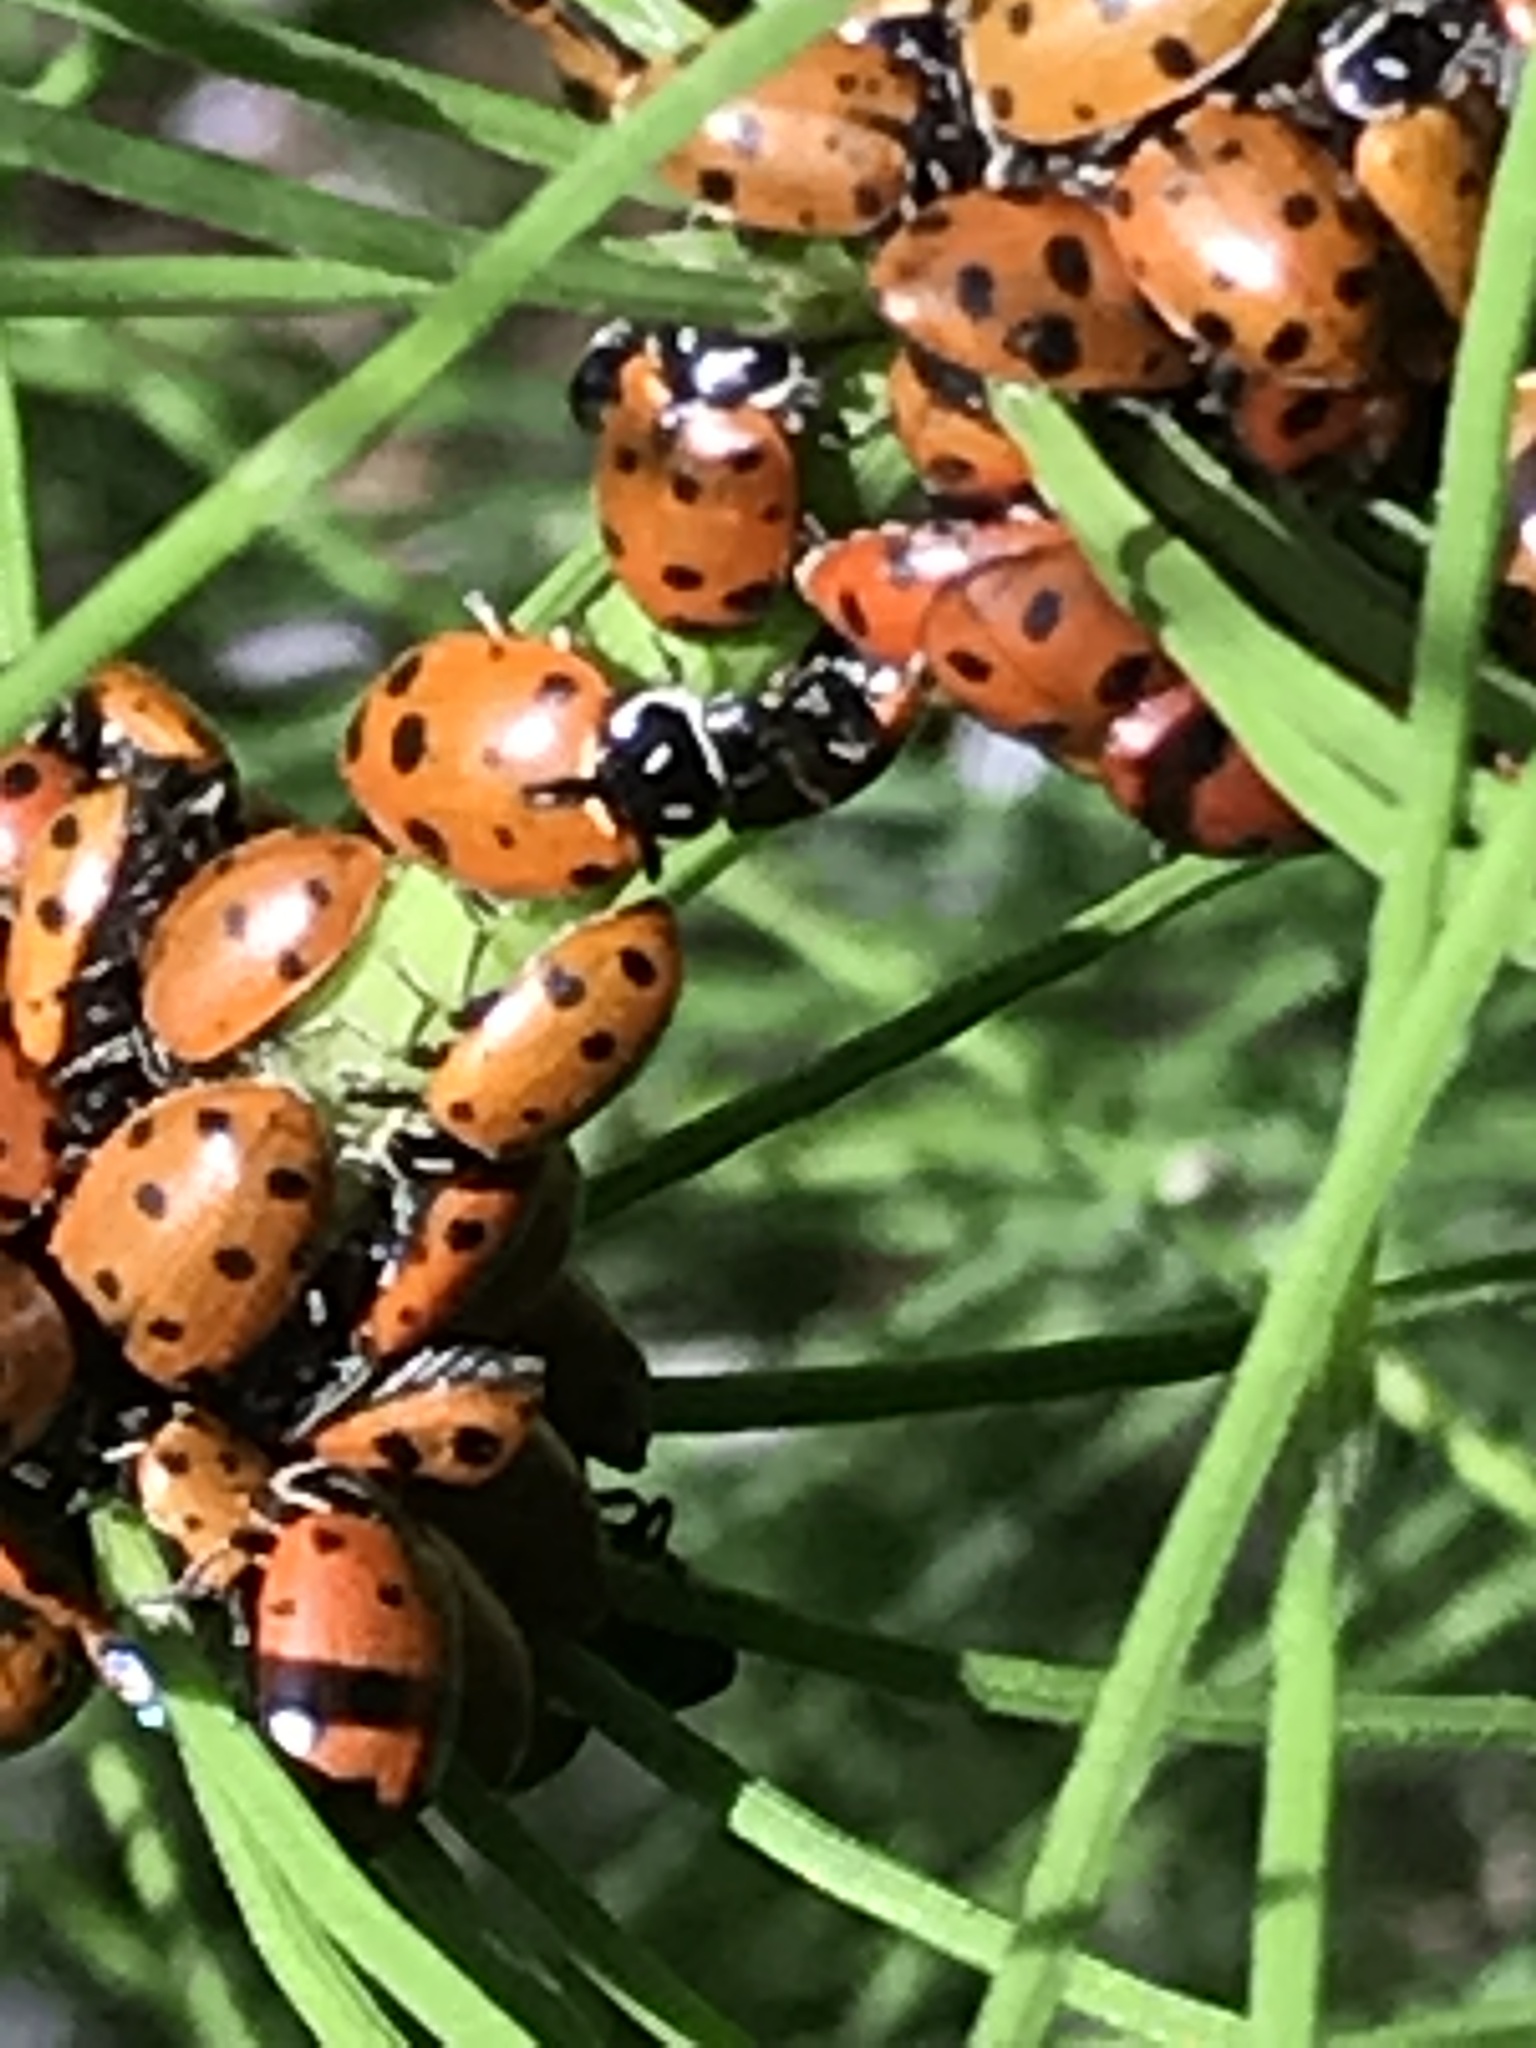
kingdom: Animalia
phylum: Arthropoda
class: Insecta
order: Coleoptera
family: Coccinellidae
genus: Hippodamia
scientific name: Hippodamia convergens
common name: Convergent lady beetle
